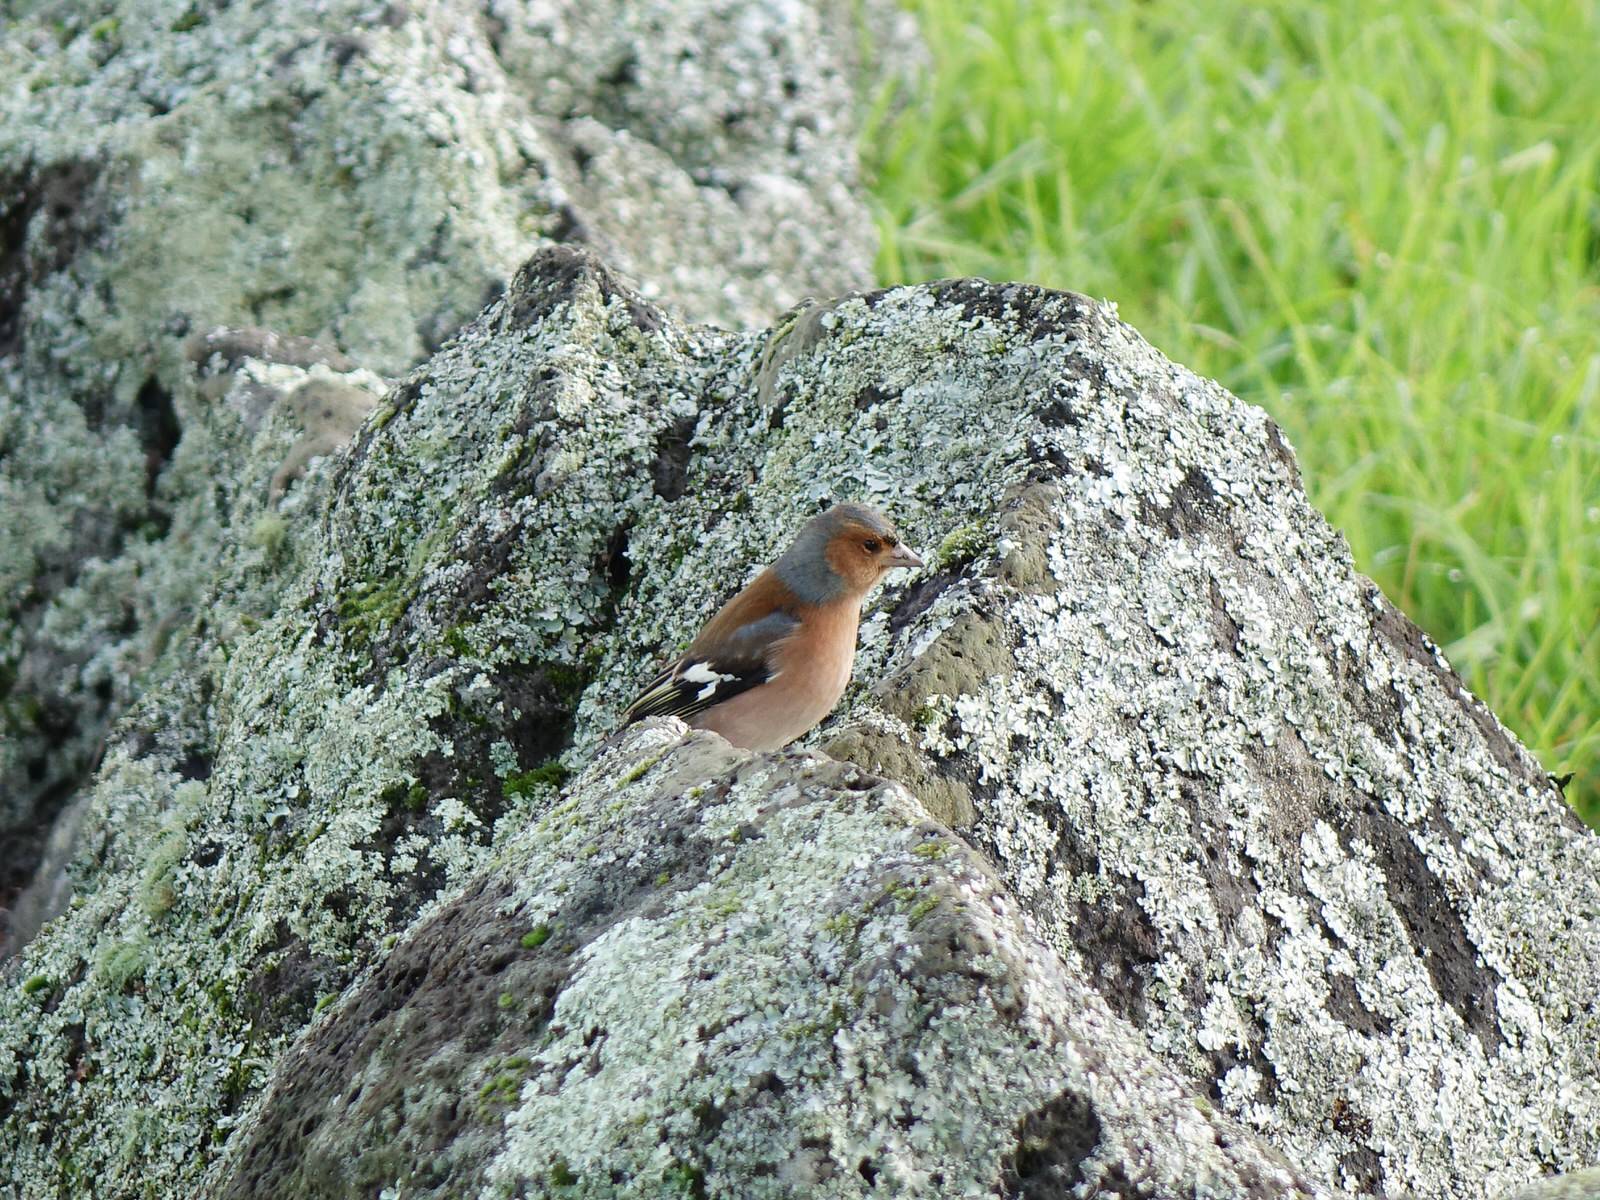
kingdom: Animalia
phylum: Chordata
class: Aves
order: Passeriformes
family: Fringillidae
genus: Fringilla
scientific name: Fringilla coelebs
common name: Common chaffinch
